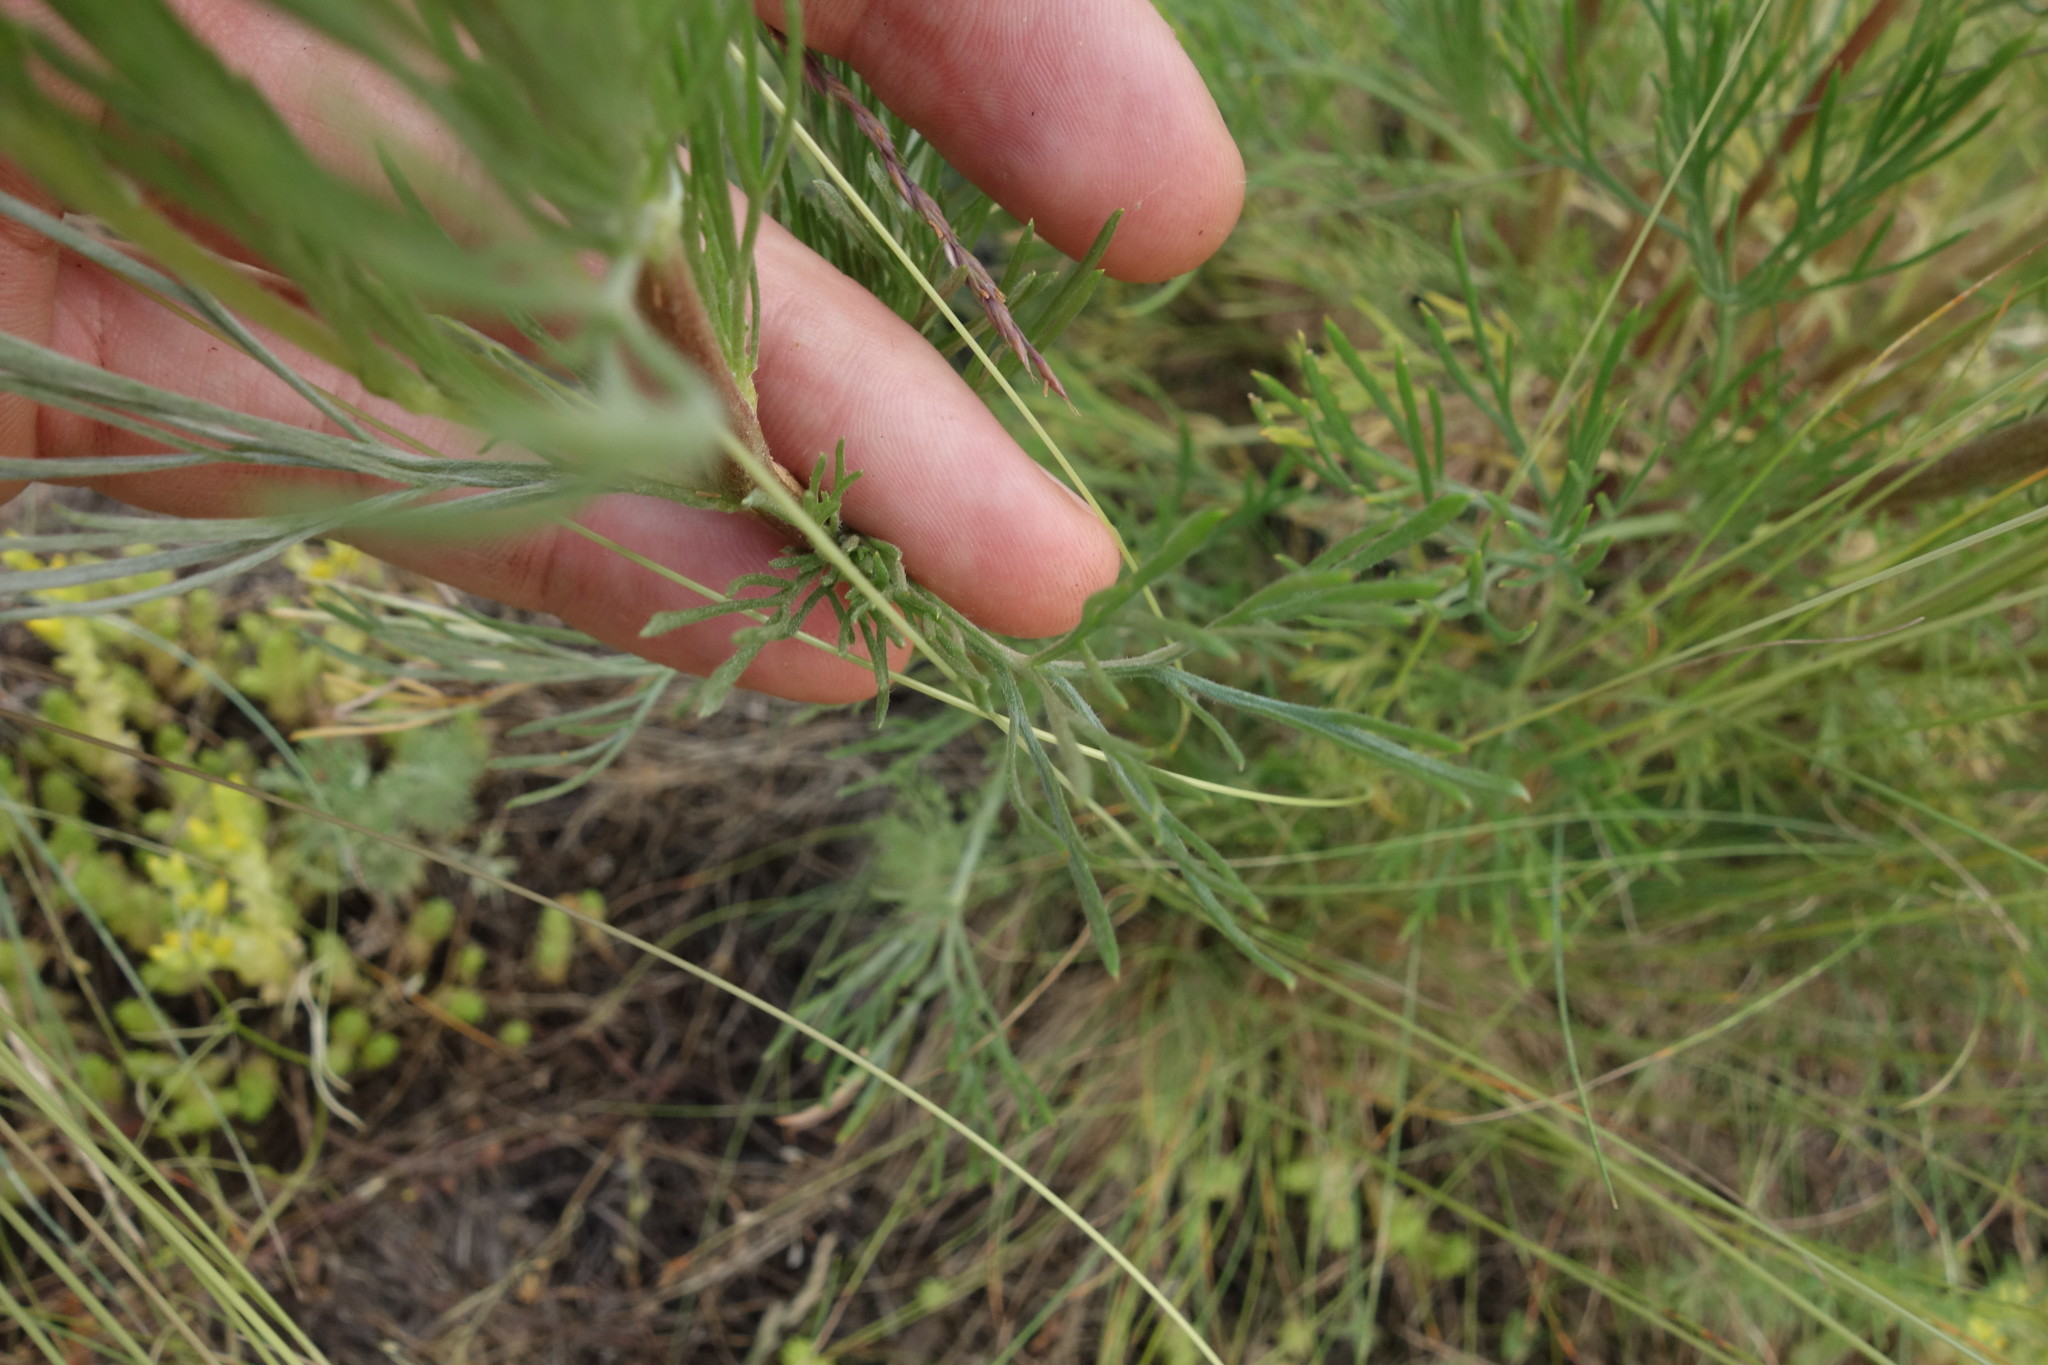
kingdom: Plantae
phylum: Tracheophyta
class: Magnoliopsida
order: Asterales
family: Asteraceae
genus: Artemisia
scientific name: Artemisia campestris
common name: Field wormwood
